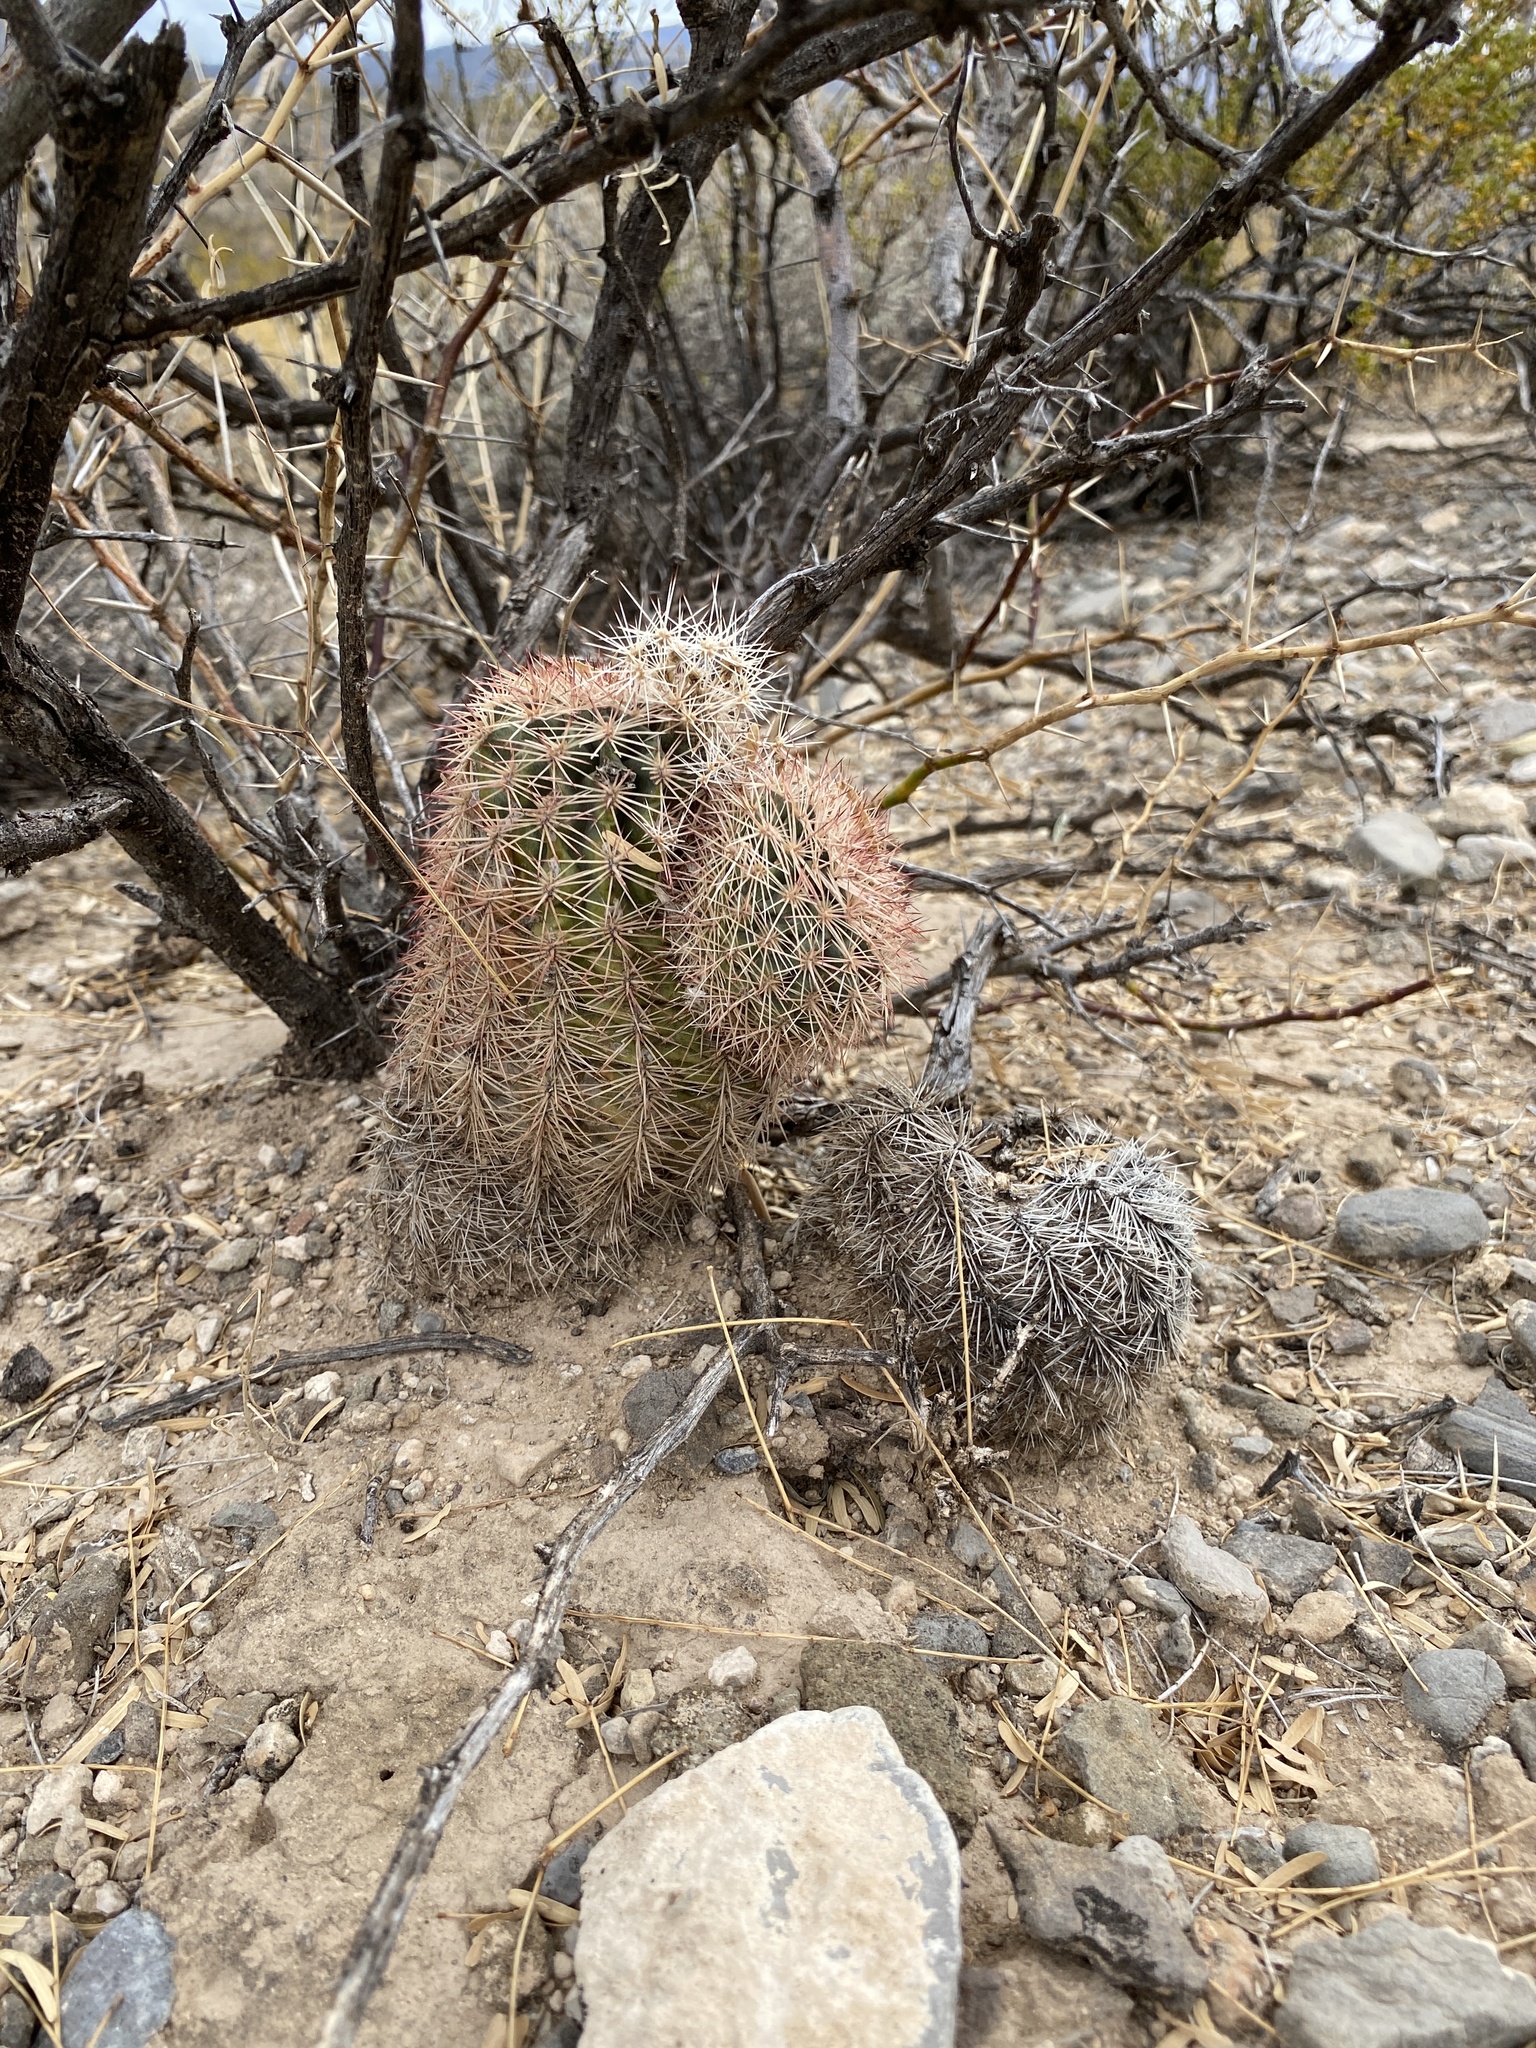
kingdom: Plantae
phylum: Tracheophyta
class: Magnoliopsida
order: Caryophyllales
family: Cactaceae
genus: Echinocereus
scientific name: Echinocereus dasyacanthus
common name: Spiny hedgehog cactus
